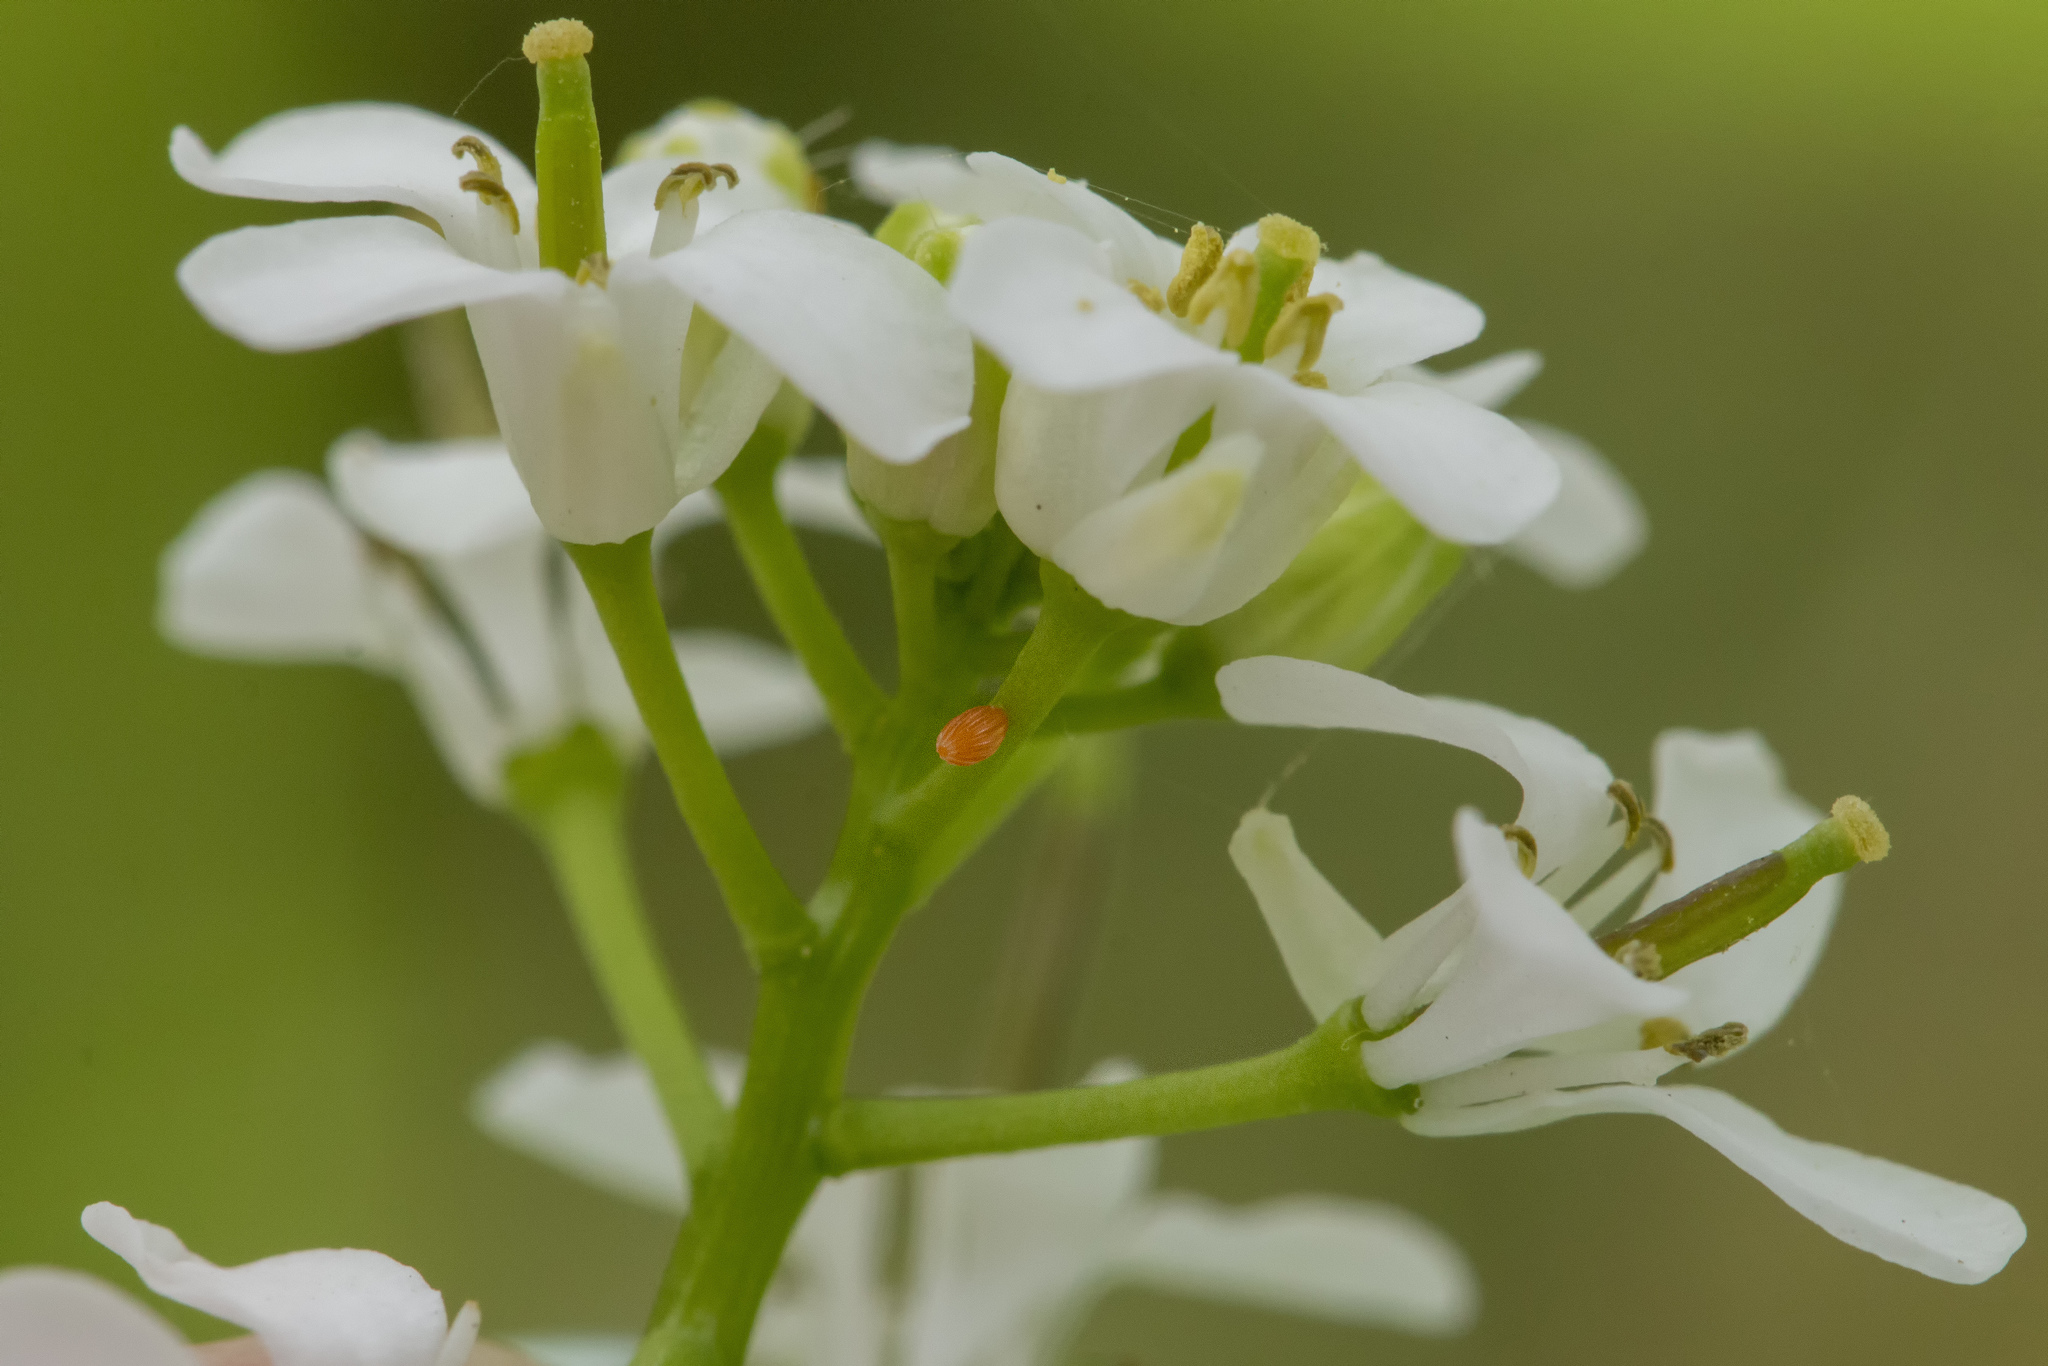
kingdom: Animalia
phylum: Arthropoda
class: Insecta
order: Lepidoptera
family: Pieridae
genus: Anthocharis
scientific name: Anthocharis cardamines
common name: Orange-tip
